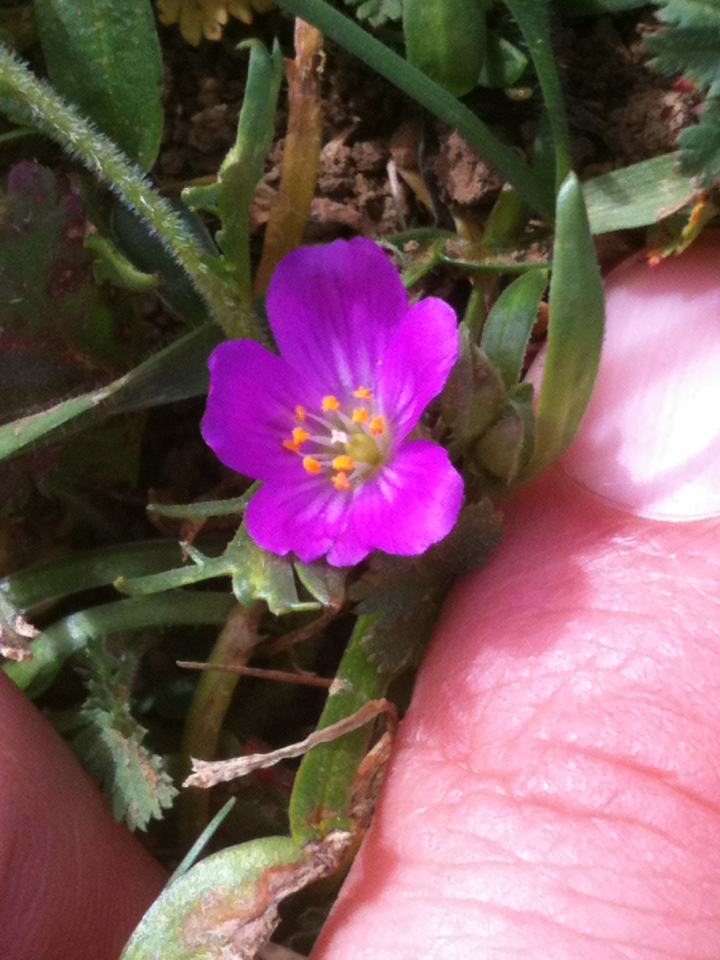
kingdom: Plantae
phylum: Tracheophyta
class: Magnoliopsida
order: Caryophyllales
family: Montiaceae
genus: Calandrinia
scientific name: Calandrinia menziesii
